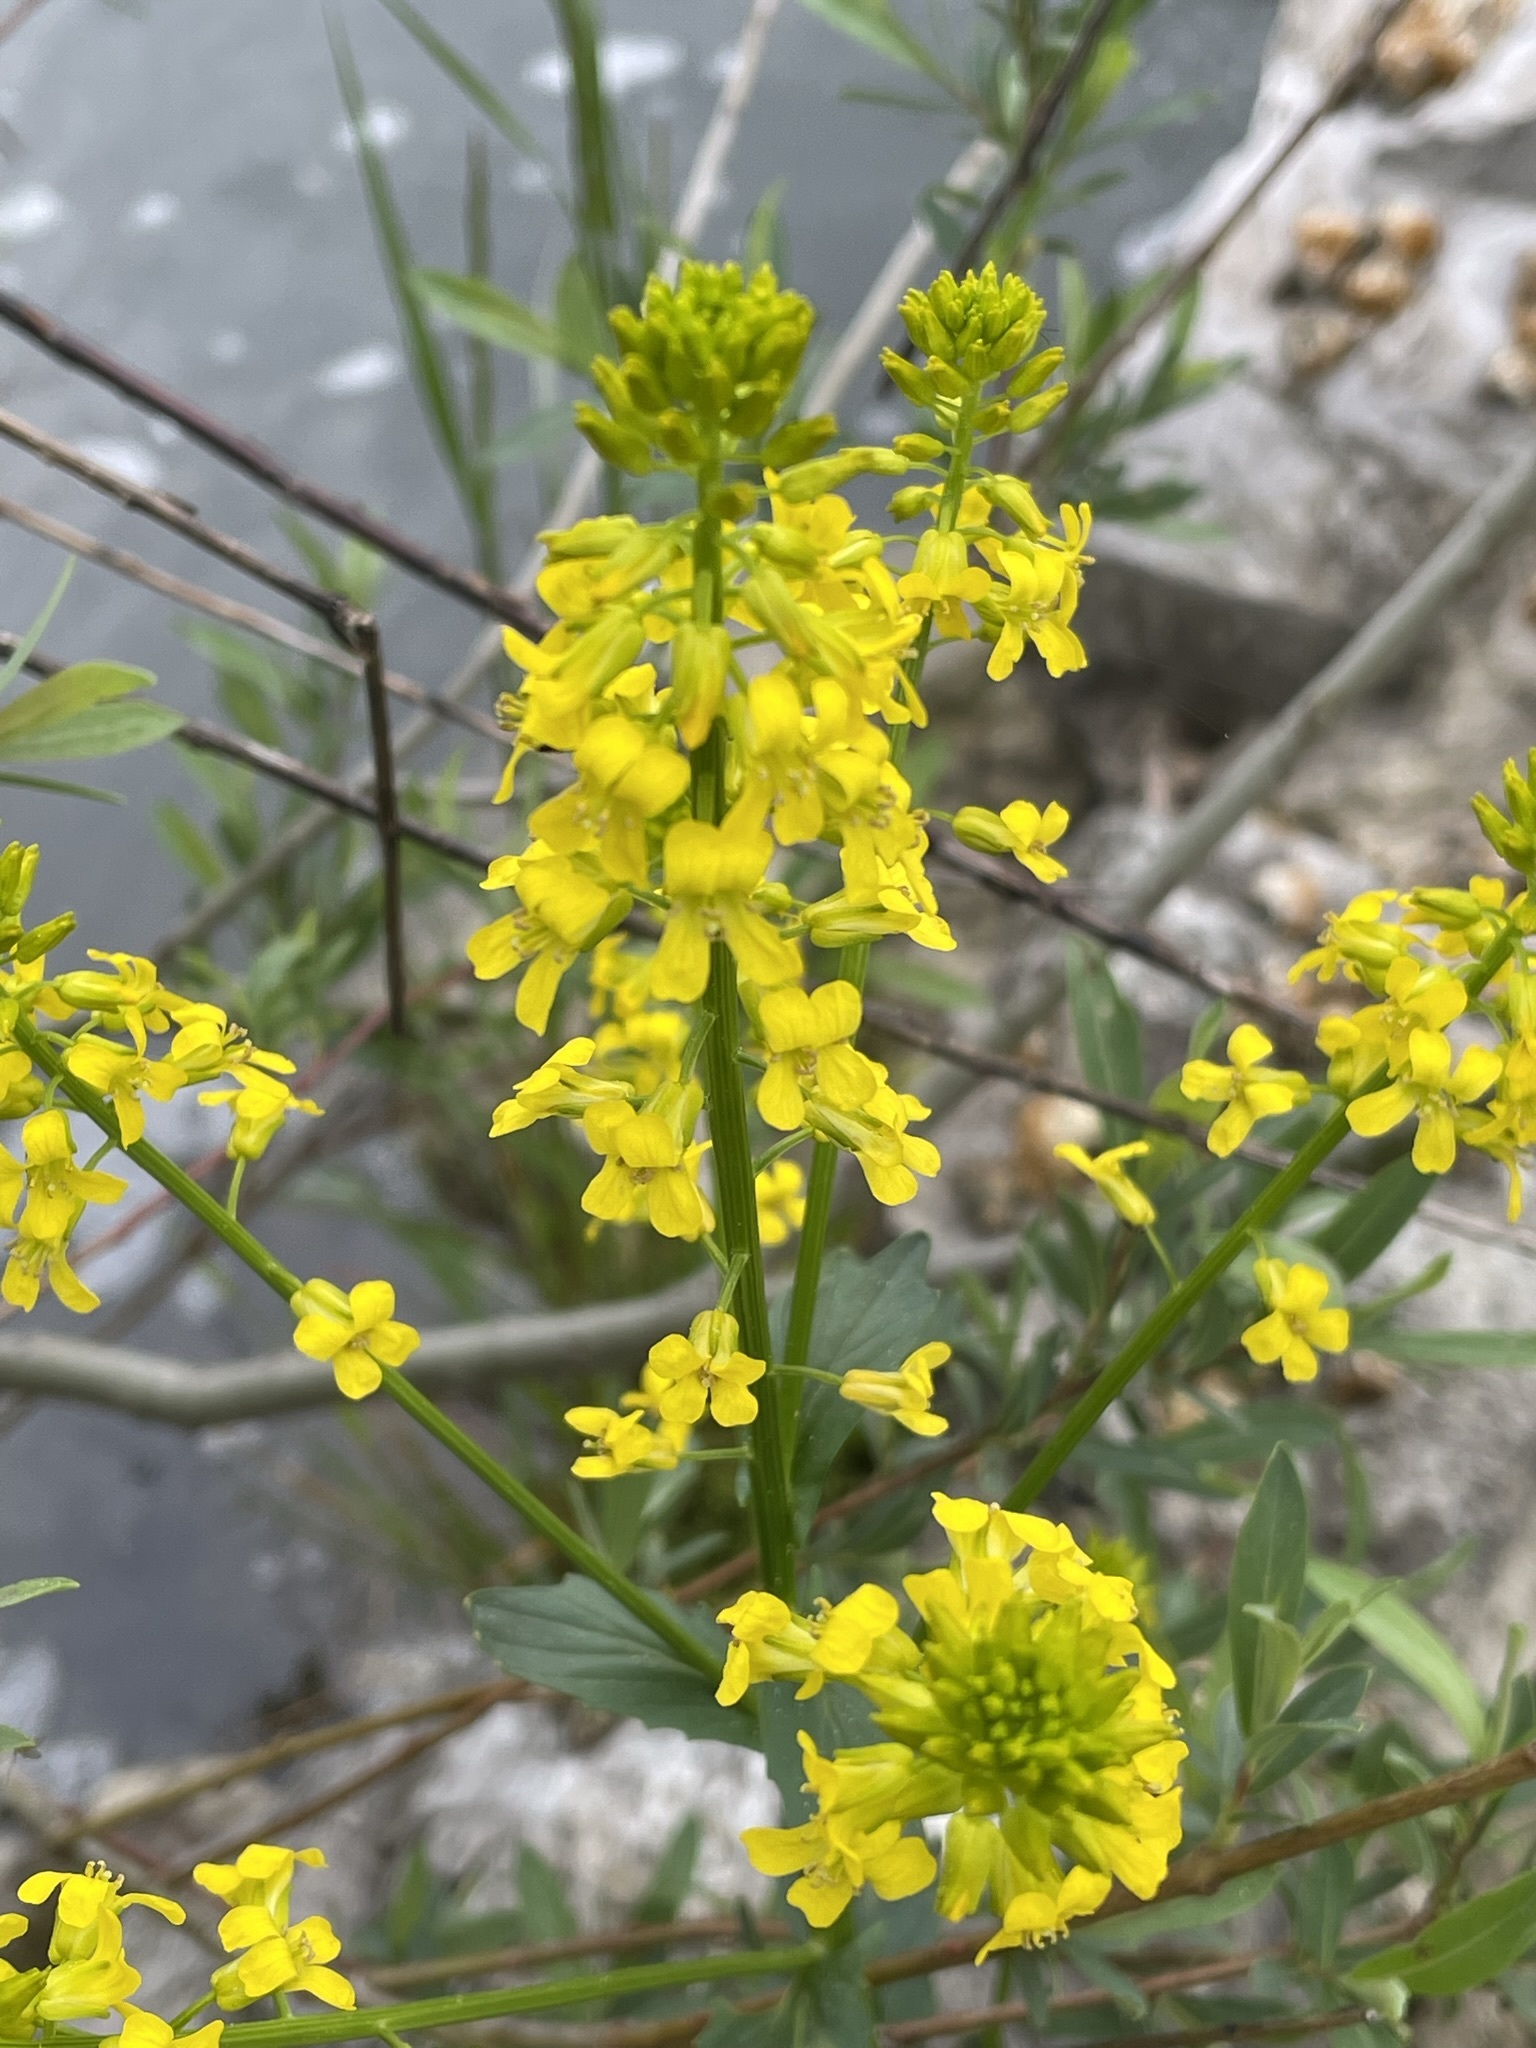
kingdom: Plantae
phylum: Tracheophyta
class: Magnoliopsida
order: Brassicales
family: Brassicaceae
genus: Barbarea
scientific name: Barbarea vulgaris
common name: Cressy-greens
